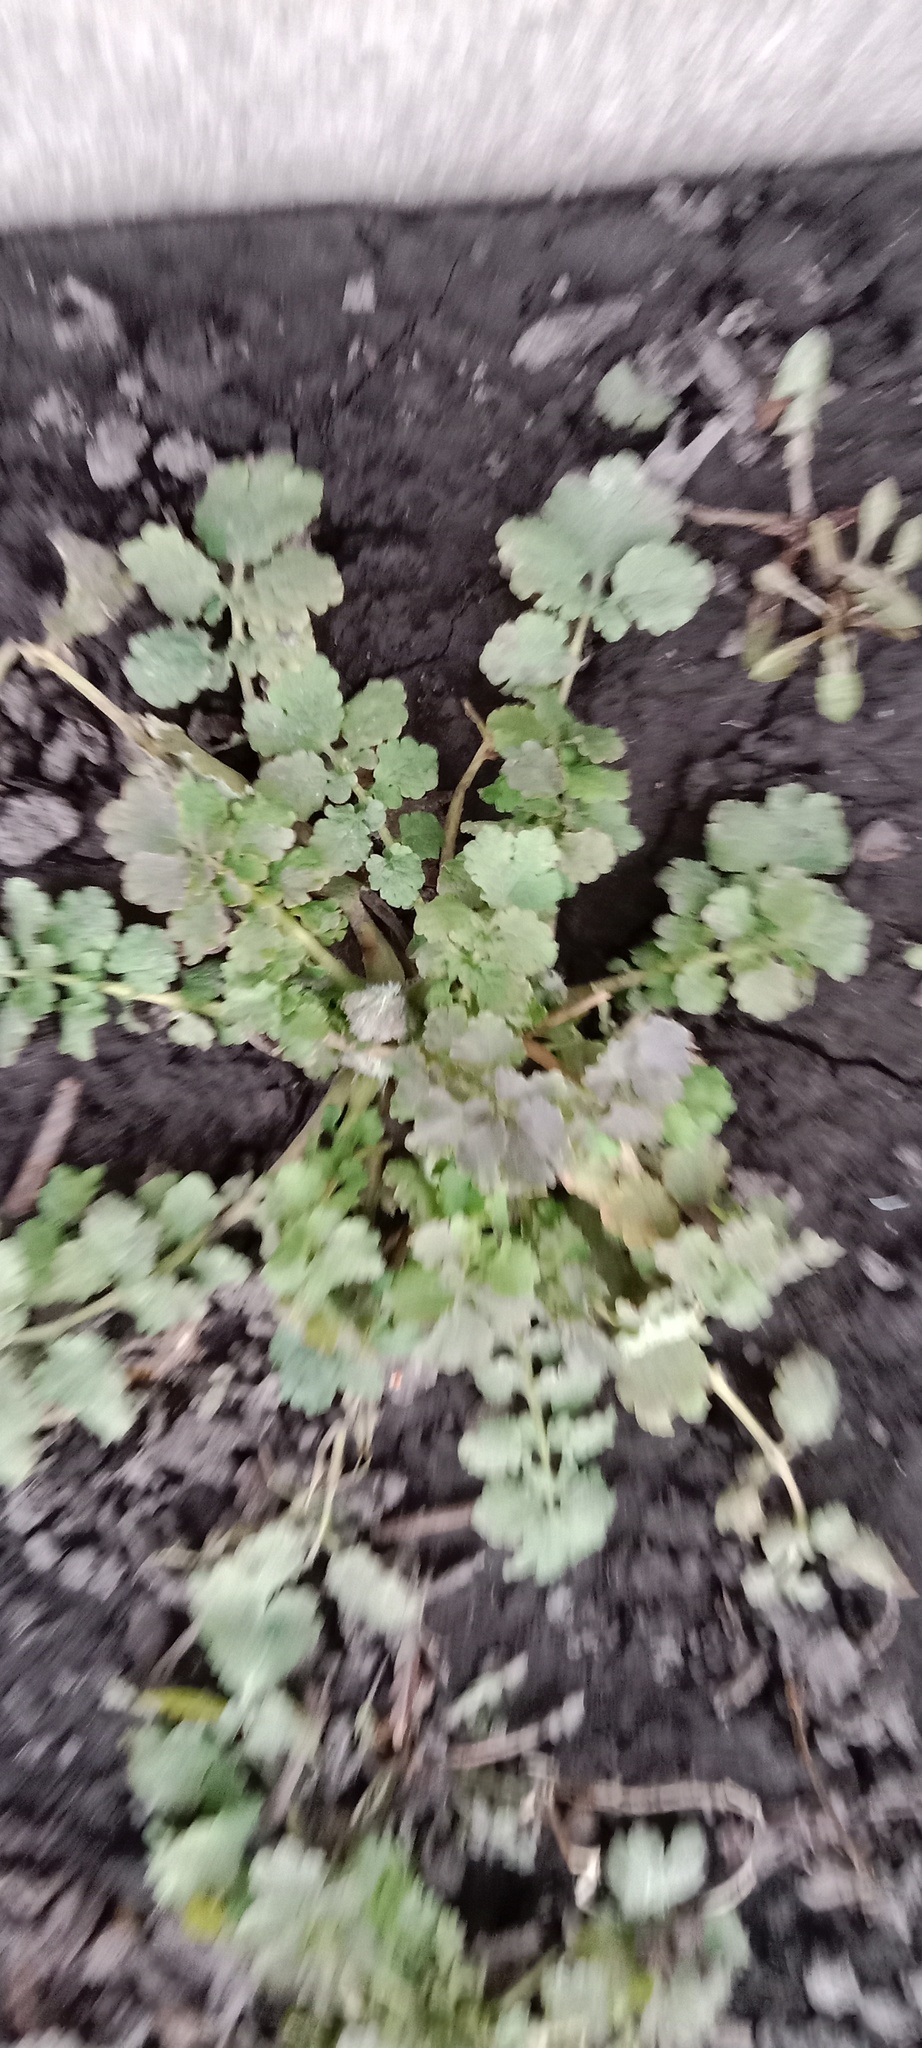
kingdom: Plantae
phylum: Tracheophyta
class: Magnoliopsida
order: Ranunculales
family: Papaveraceae
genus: Chelidonium
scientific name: Chelidonium majus
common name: Greater celandine
